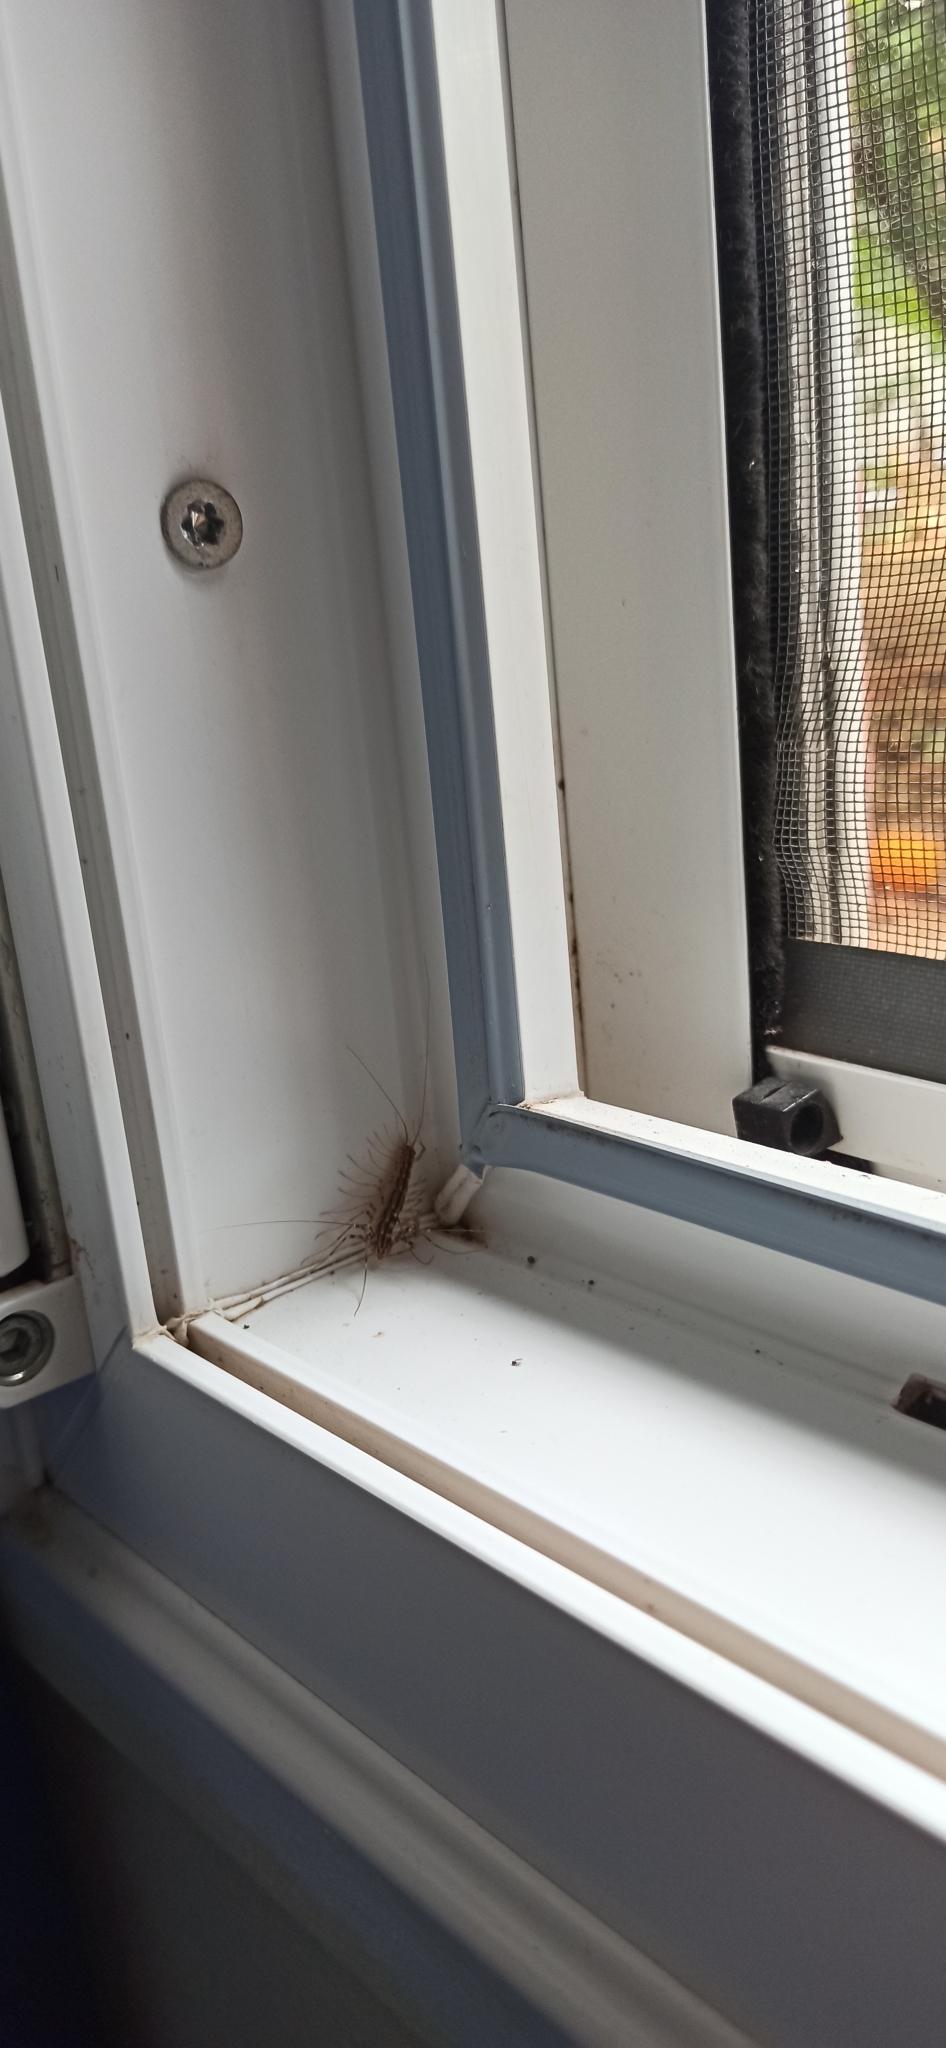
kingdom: Animalia
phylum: Arthropoda
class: Chilopoda
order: Scutigeromorpha
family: Scutigeridae
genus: Scutigera
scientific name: Scutigera coleoptrata
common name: House centipede
